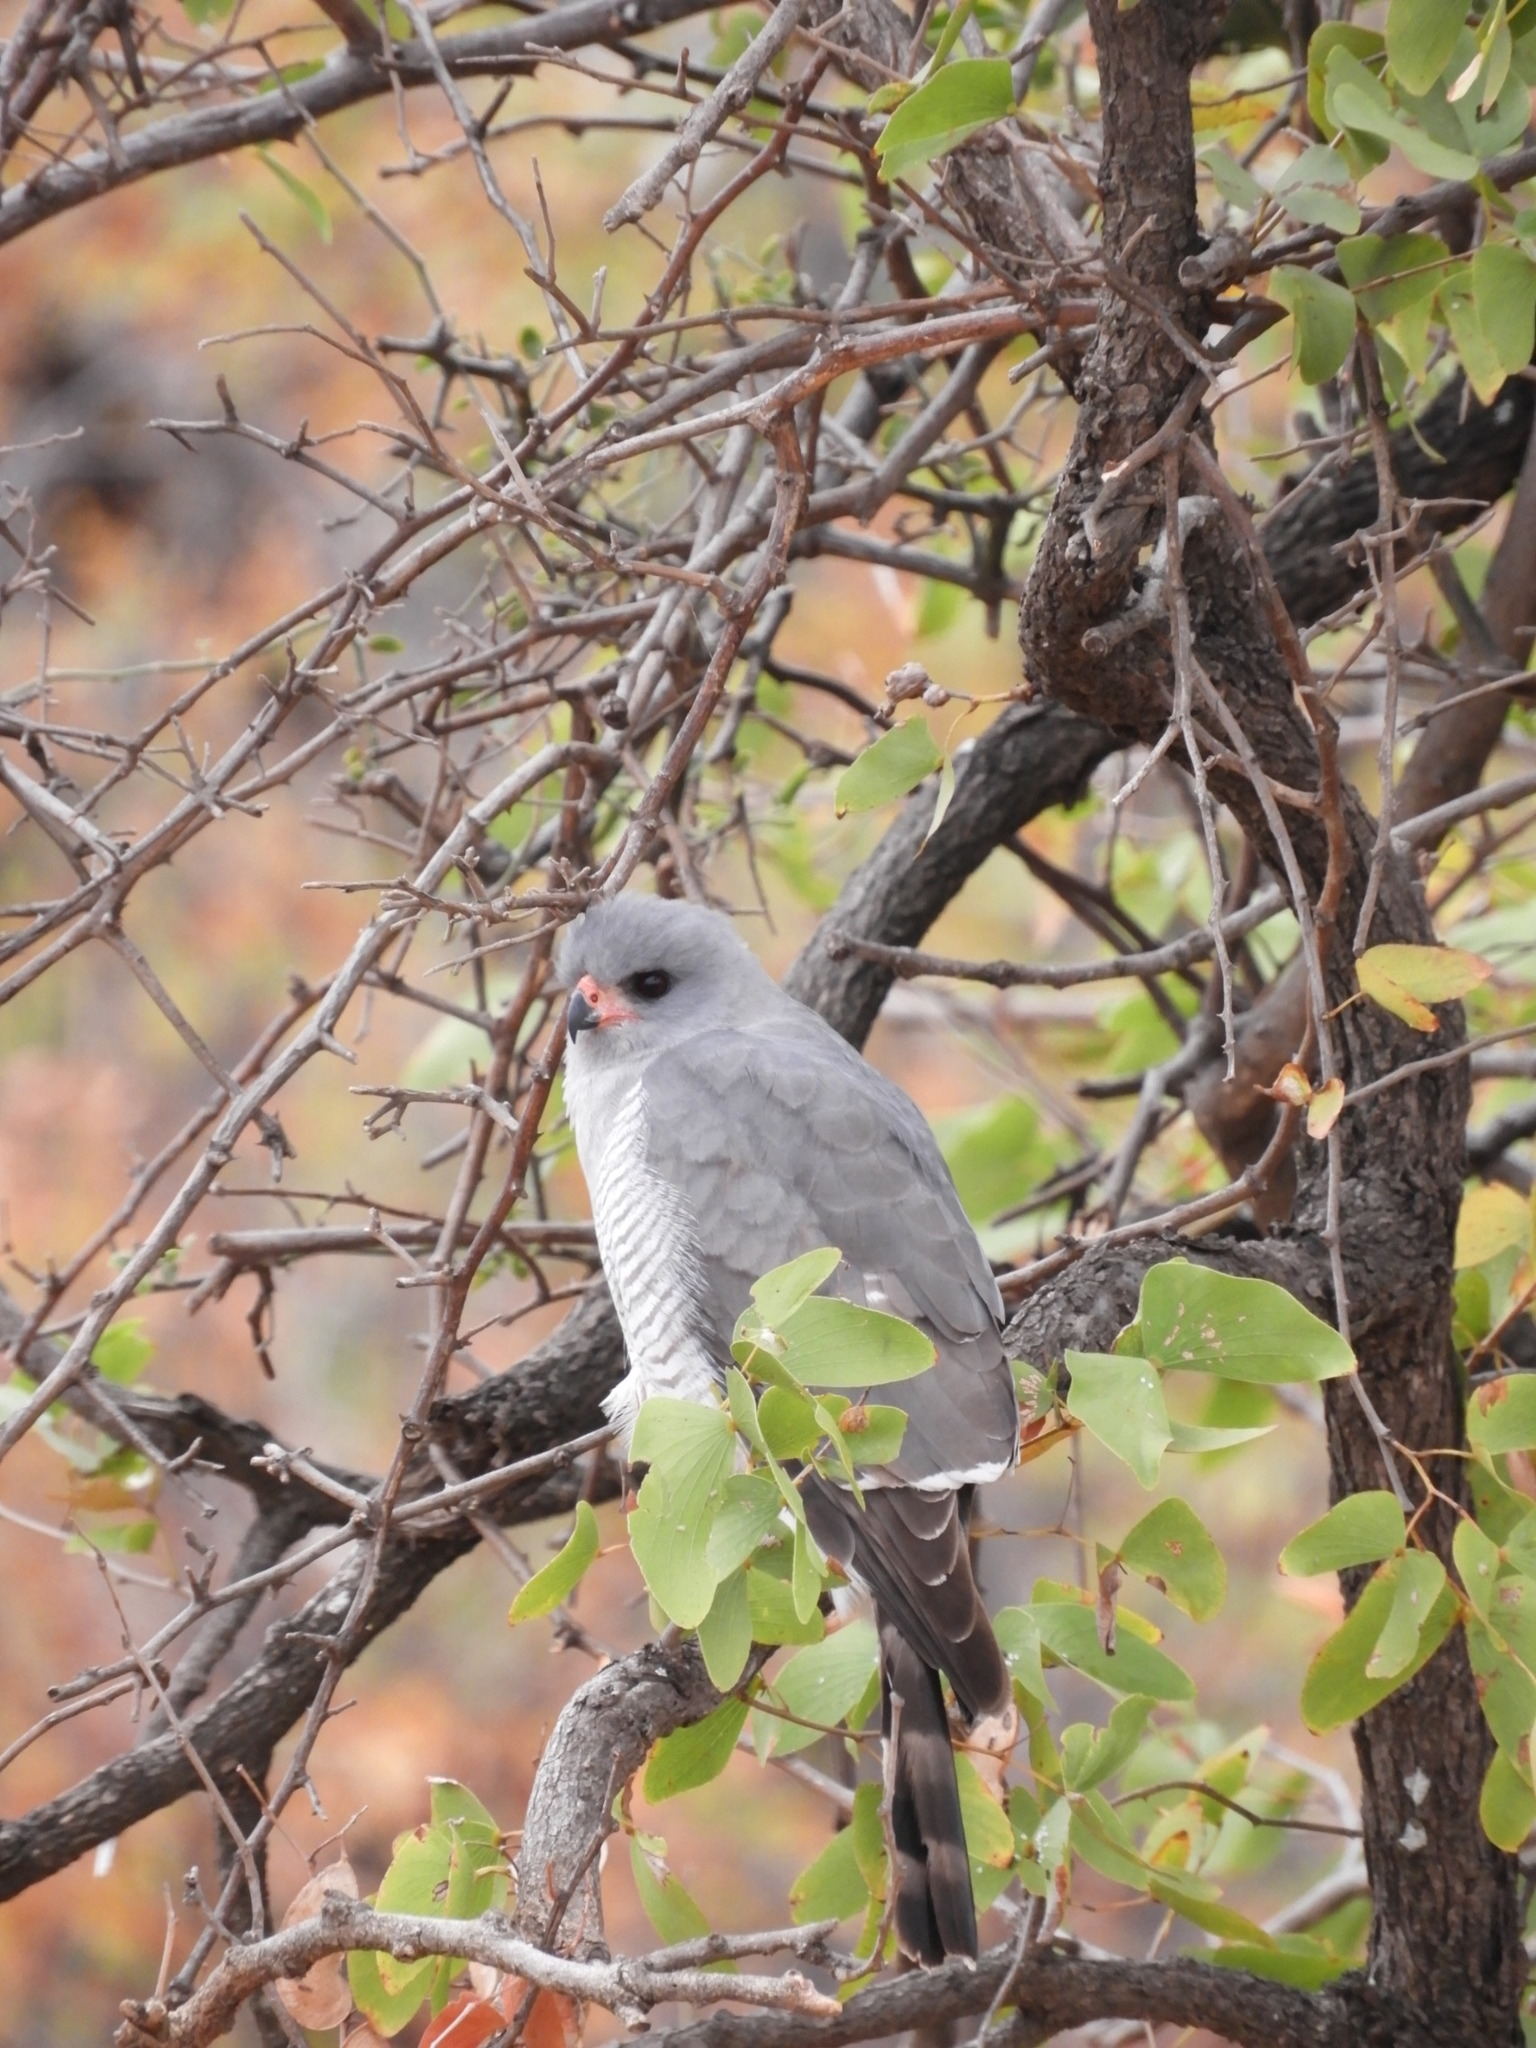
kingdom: Animalia
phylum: Chordata
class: Aves
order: Accipitriformes
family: Accipitridae
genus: Micronisus
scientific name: Micronisus gabar
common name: Gabar goshawk
